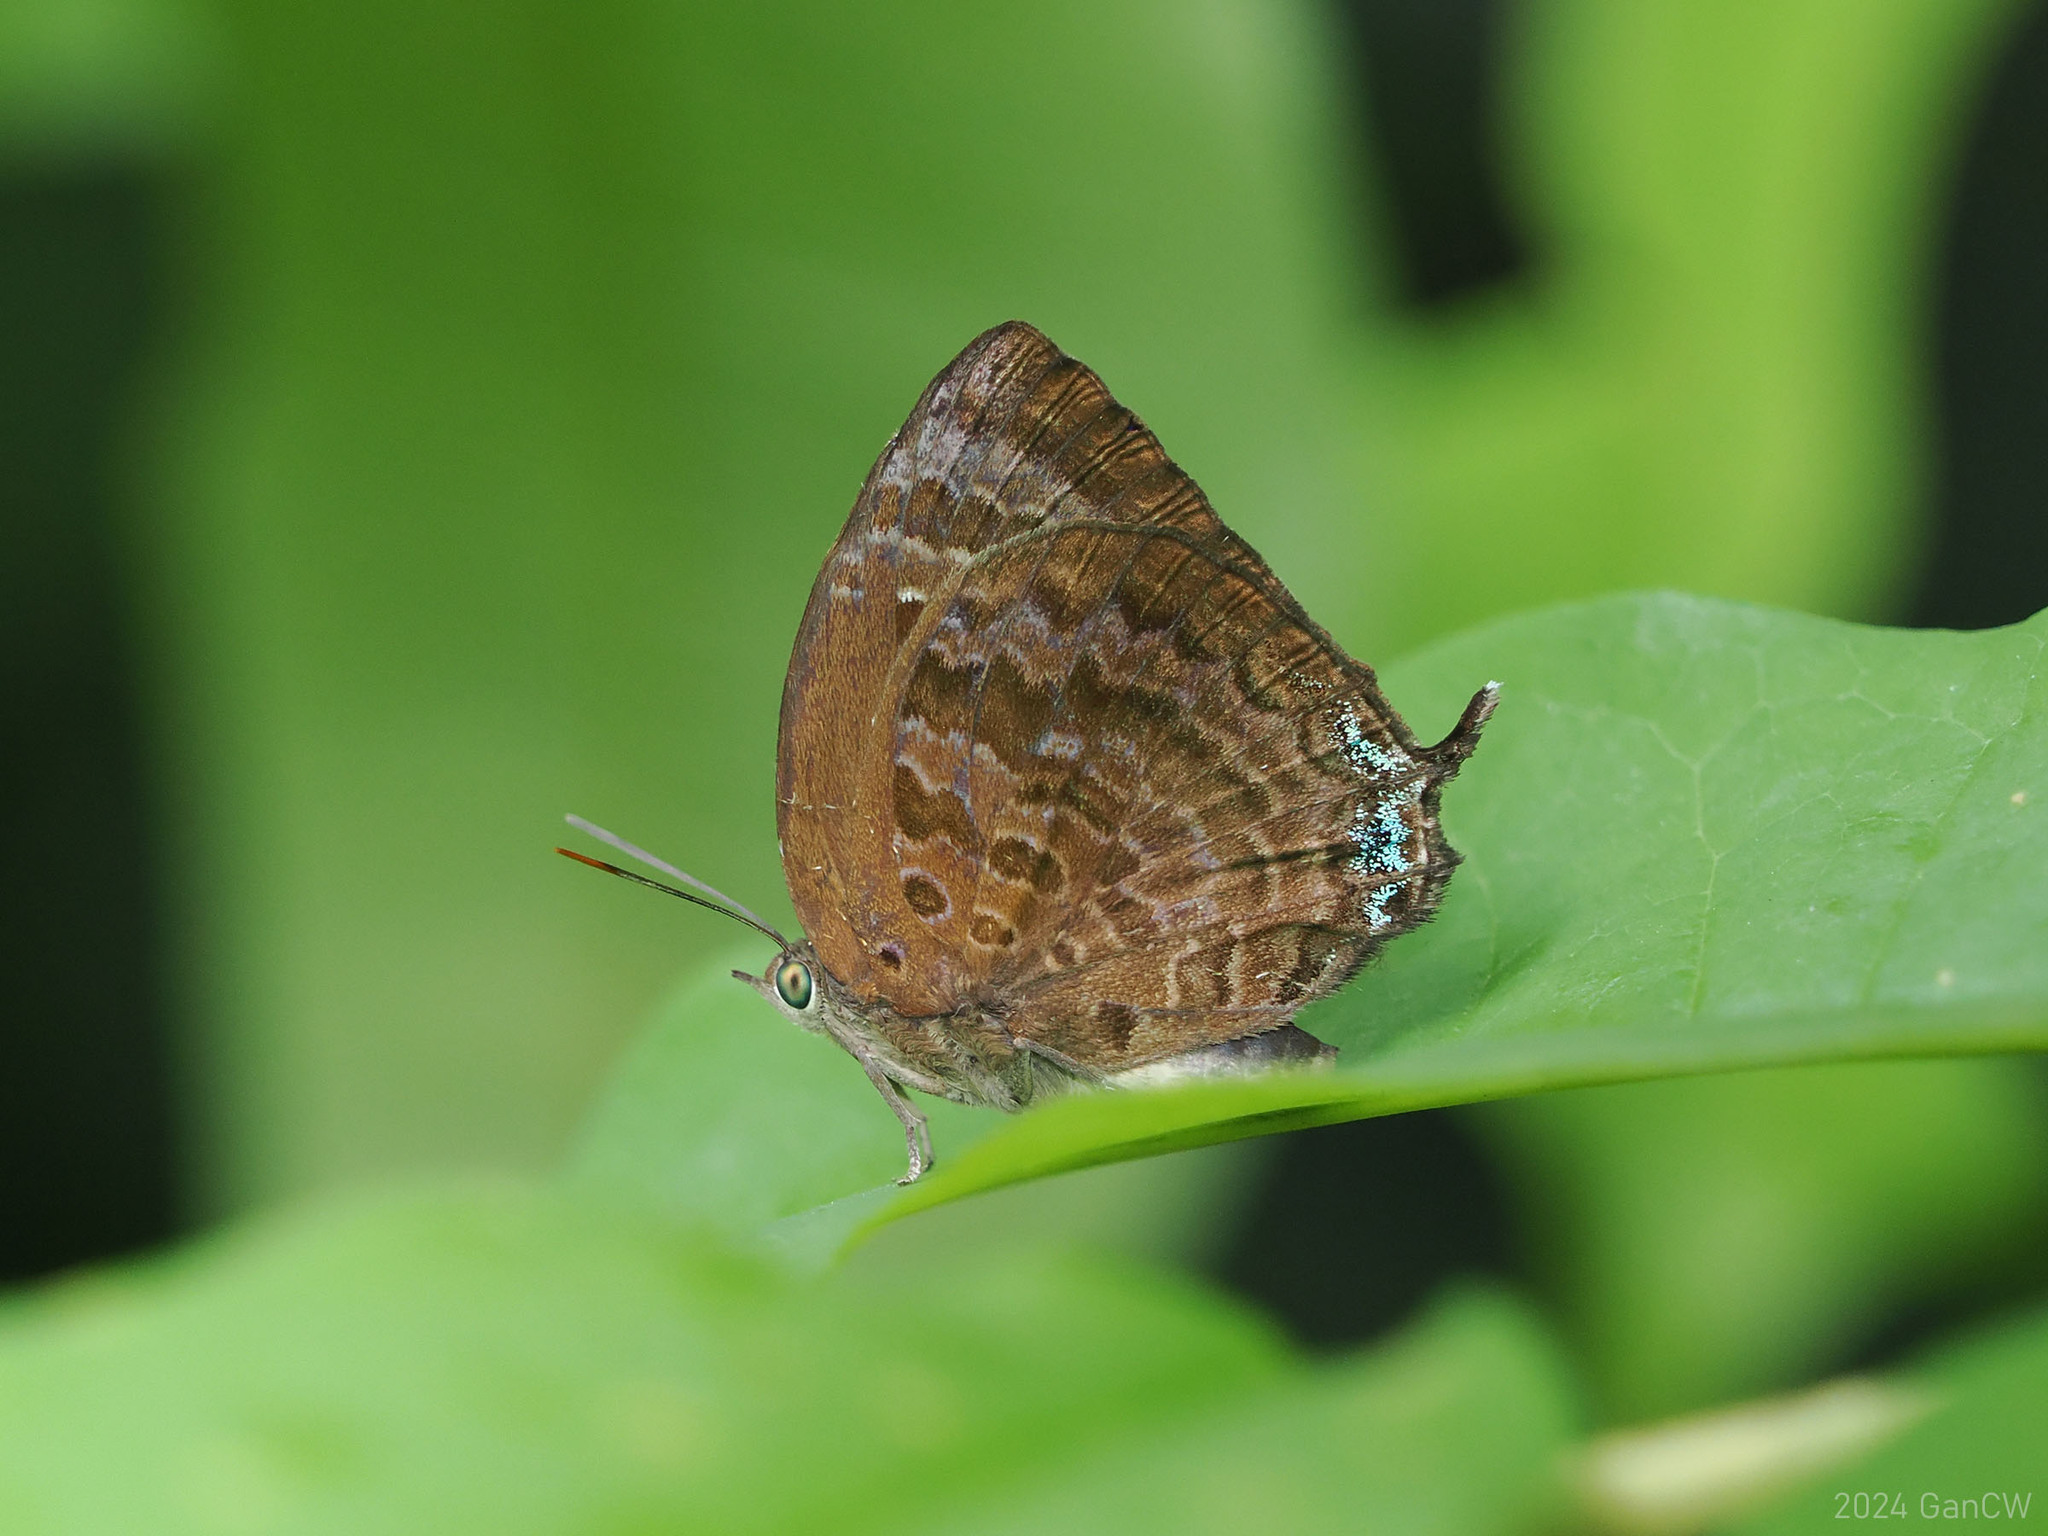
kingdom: Animalia
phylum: Arthropoda
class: Insecta
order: Lepidoptera
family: Lycaenidae
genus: Arhopala
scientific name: Arhopala centaurus
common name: Dull oak-blue
